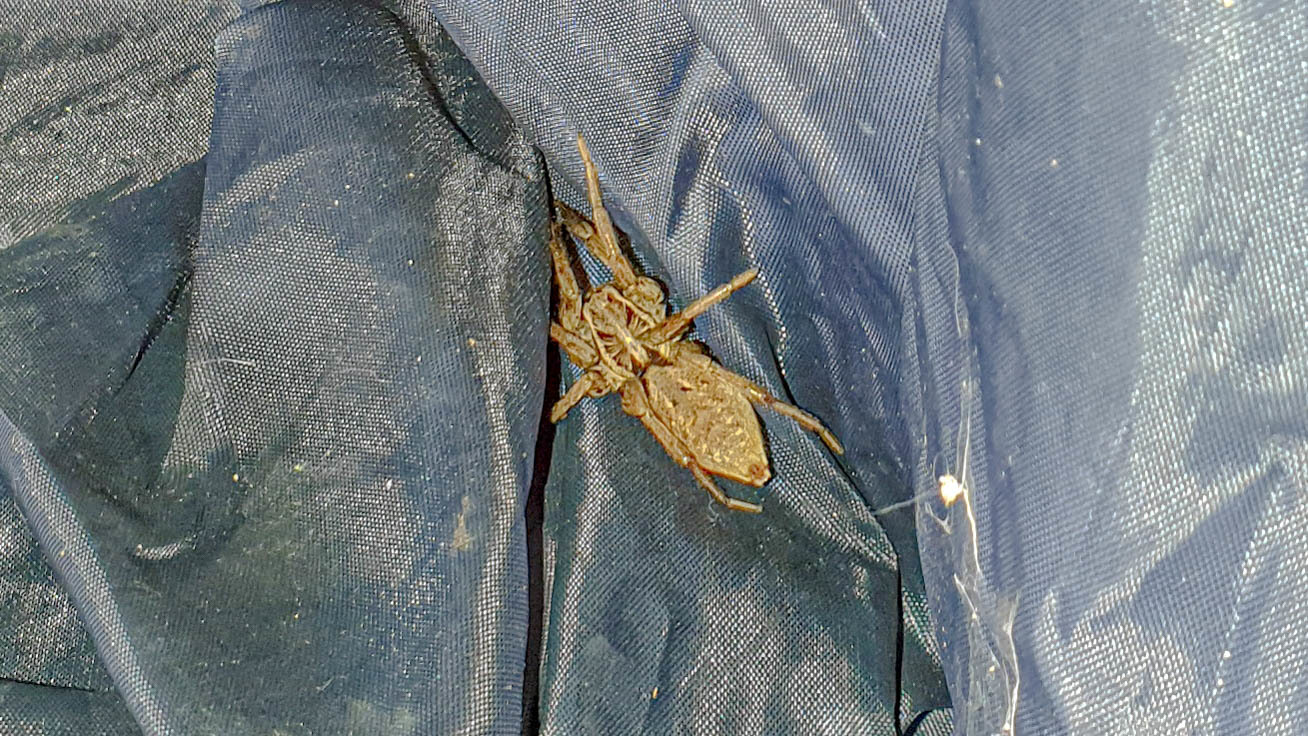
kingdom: Animalia
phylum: Arthropoda
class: Arachnida
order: Araneae
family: Lycosidae
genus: Hogna
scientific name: Hogna radiata
